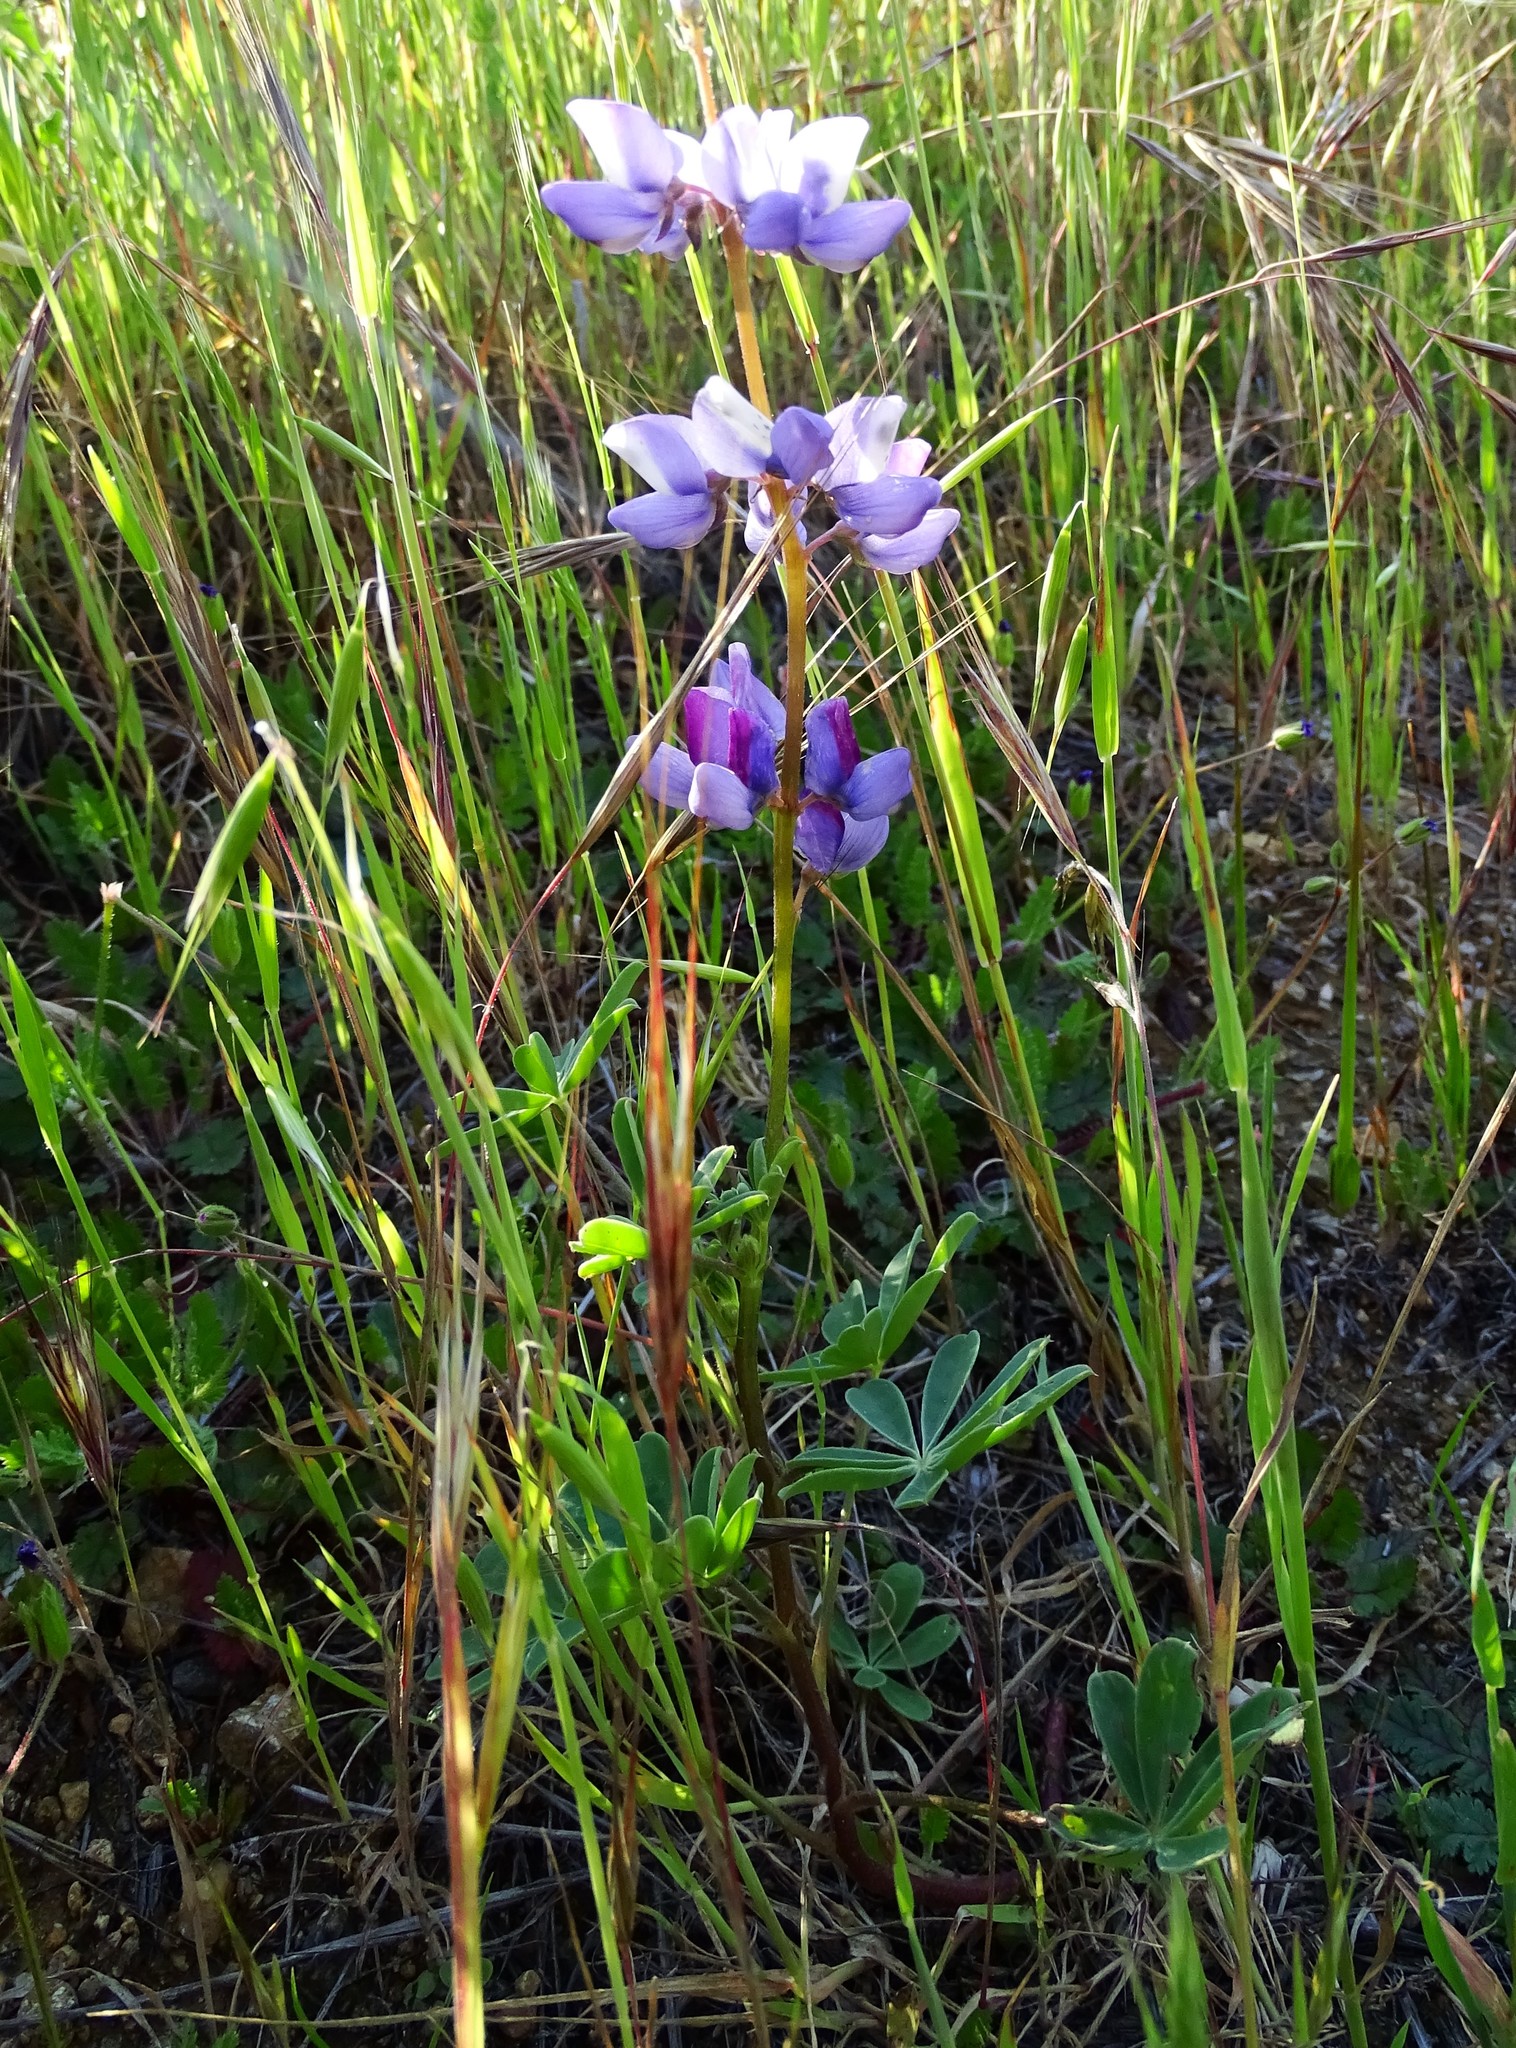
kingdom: Plantae
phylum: Tracheophyta
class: Magnoliopsida
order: Fabales
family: Fabaceae
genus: Lupinus
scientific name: Lupinus succulentus
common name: Arroyo lupine
